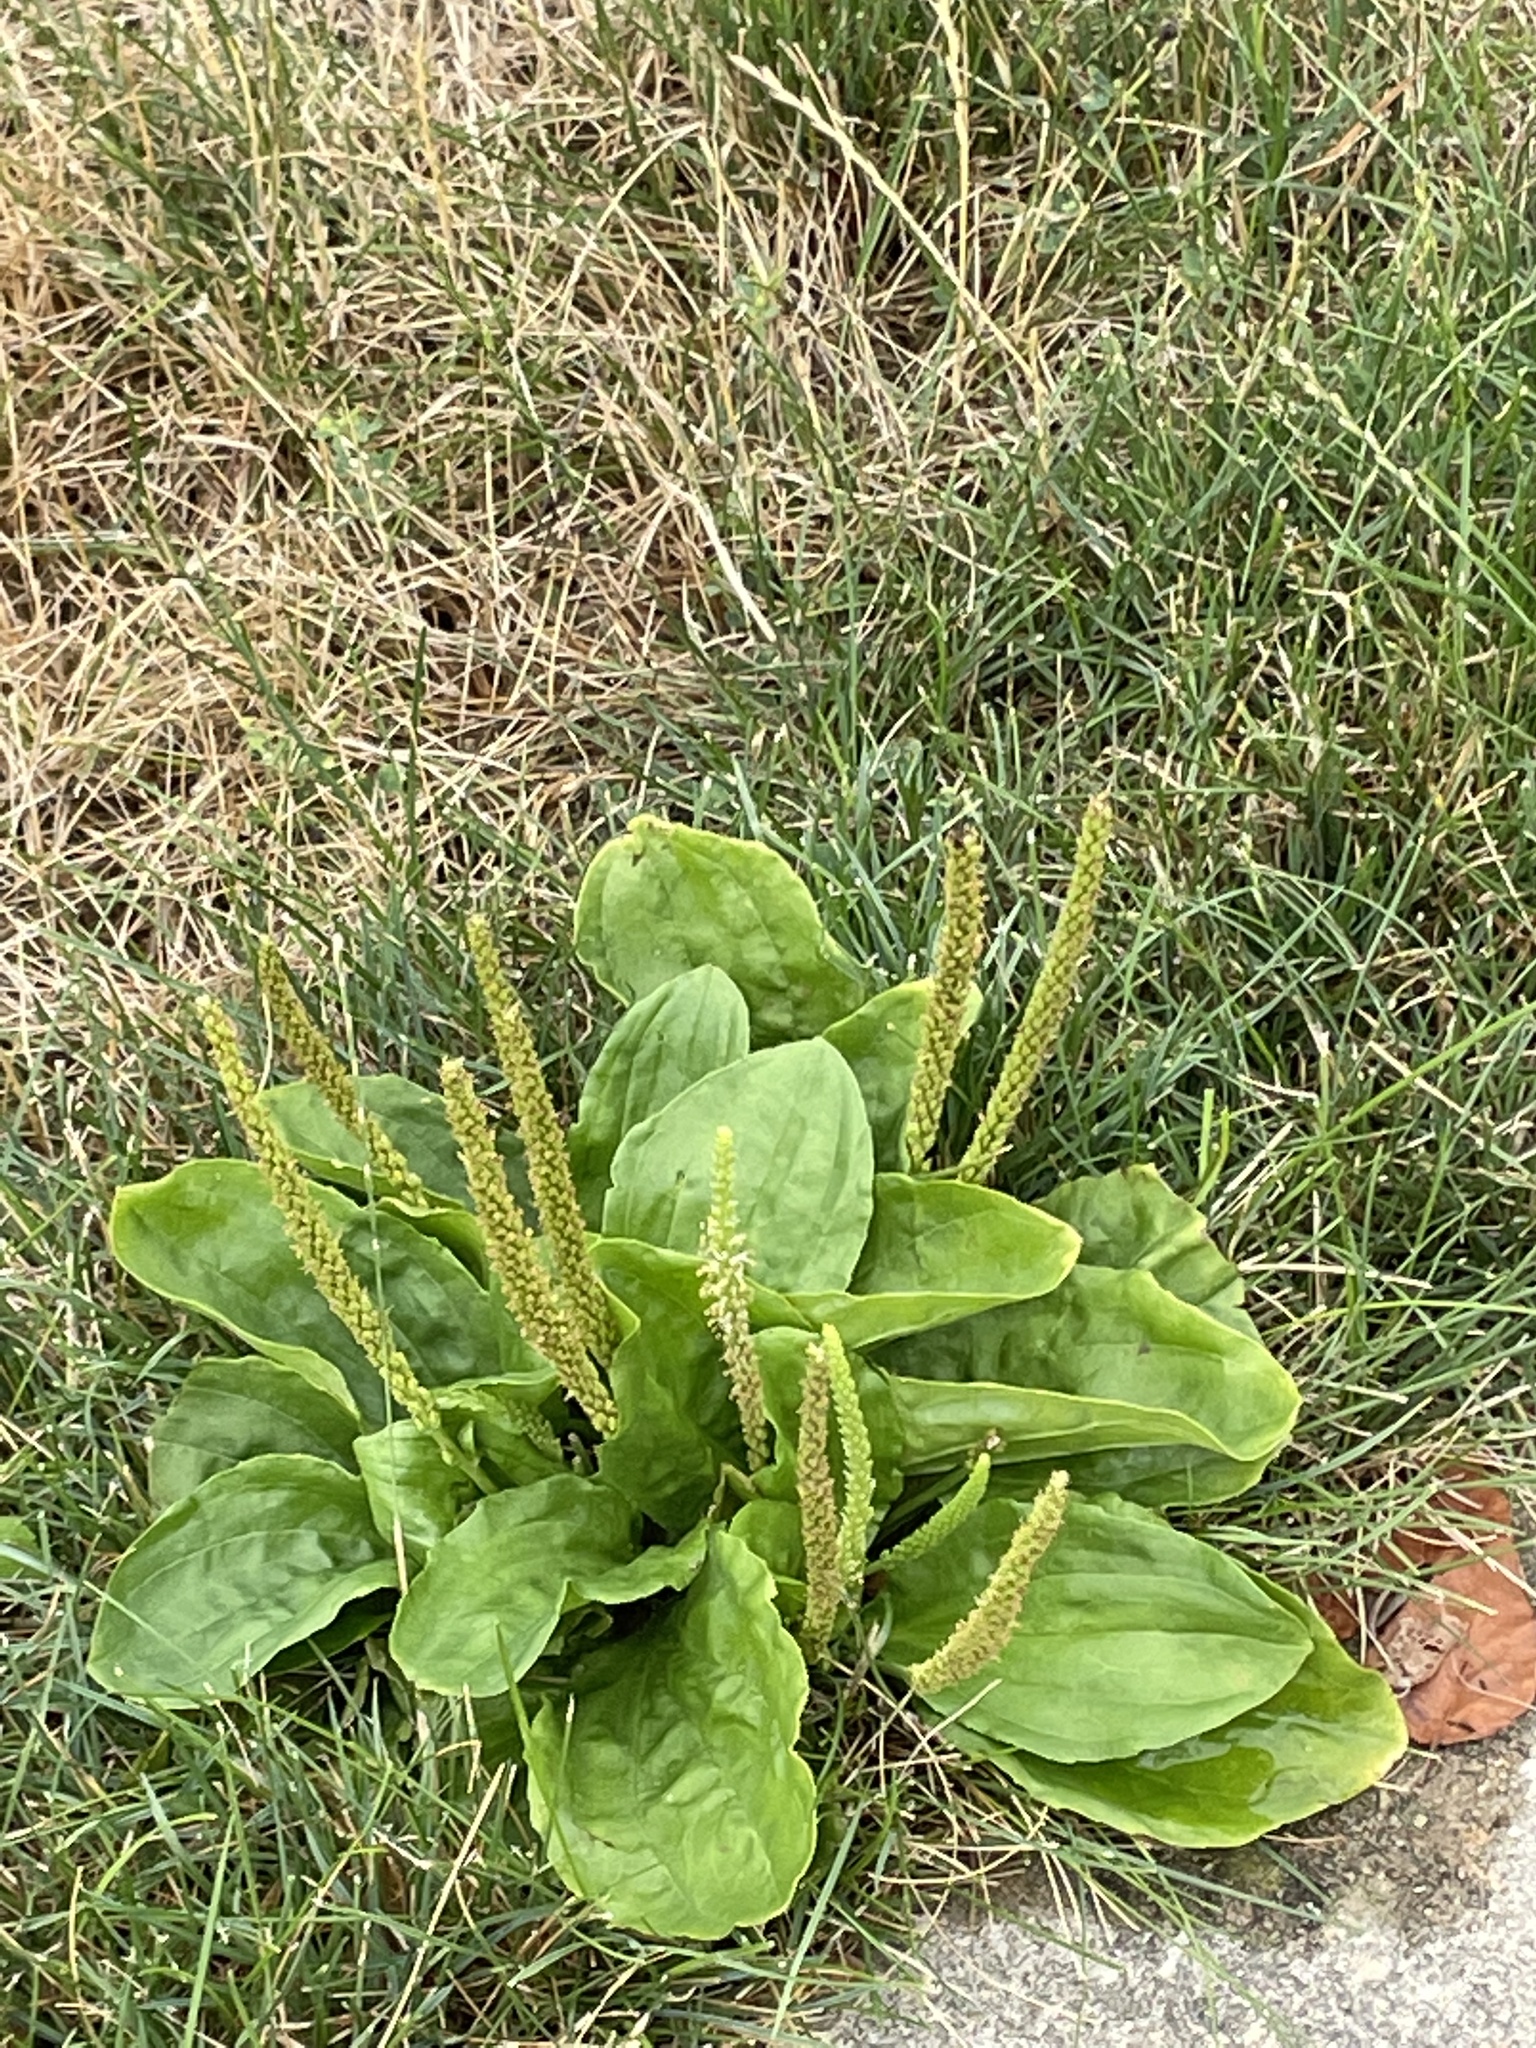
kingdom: Plantae
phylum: Tracheophyta
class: Magnoliopsida
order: Lamiales
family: Plantaginaceae
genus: Plantago
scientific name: Plantago rugelii
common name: American plantain
